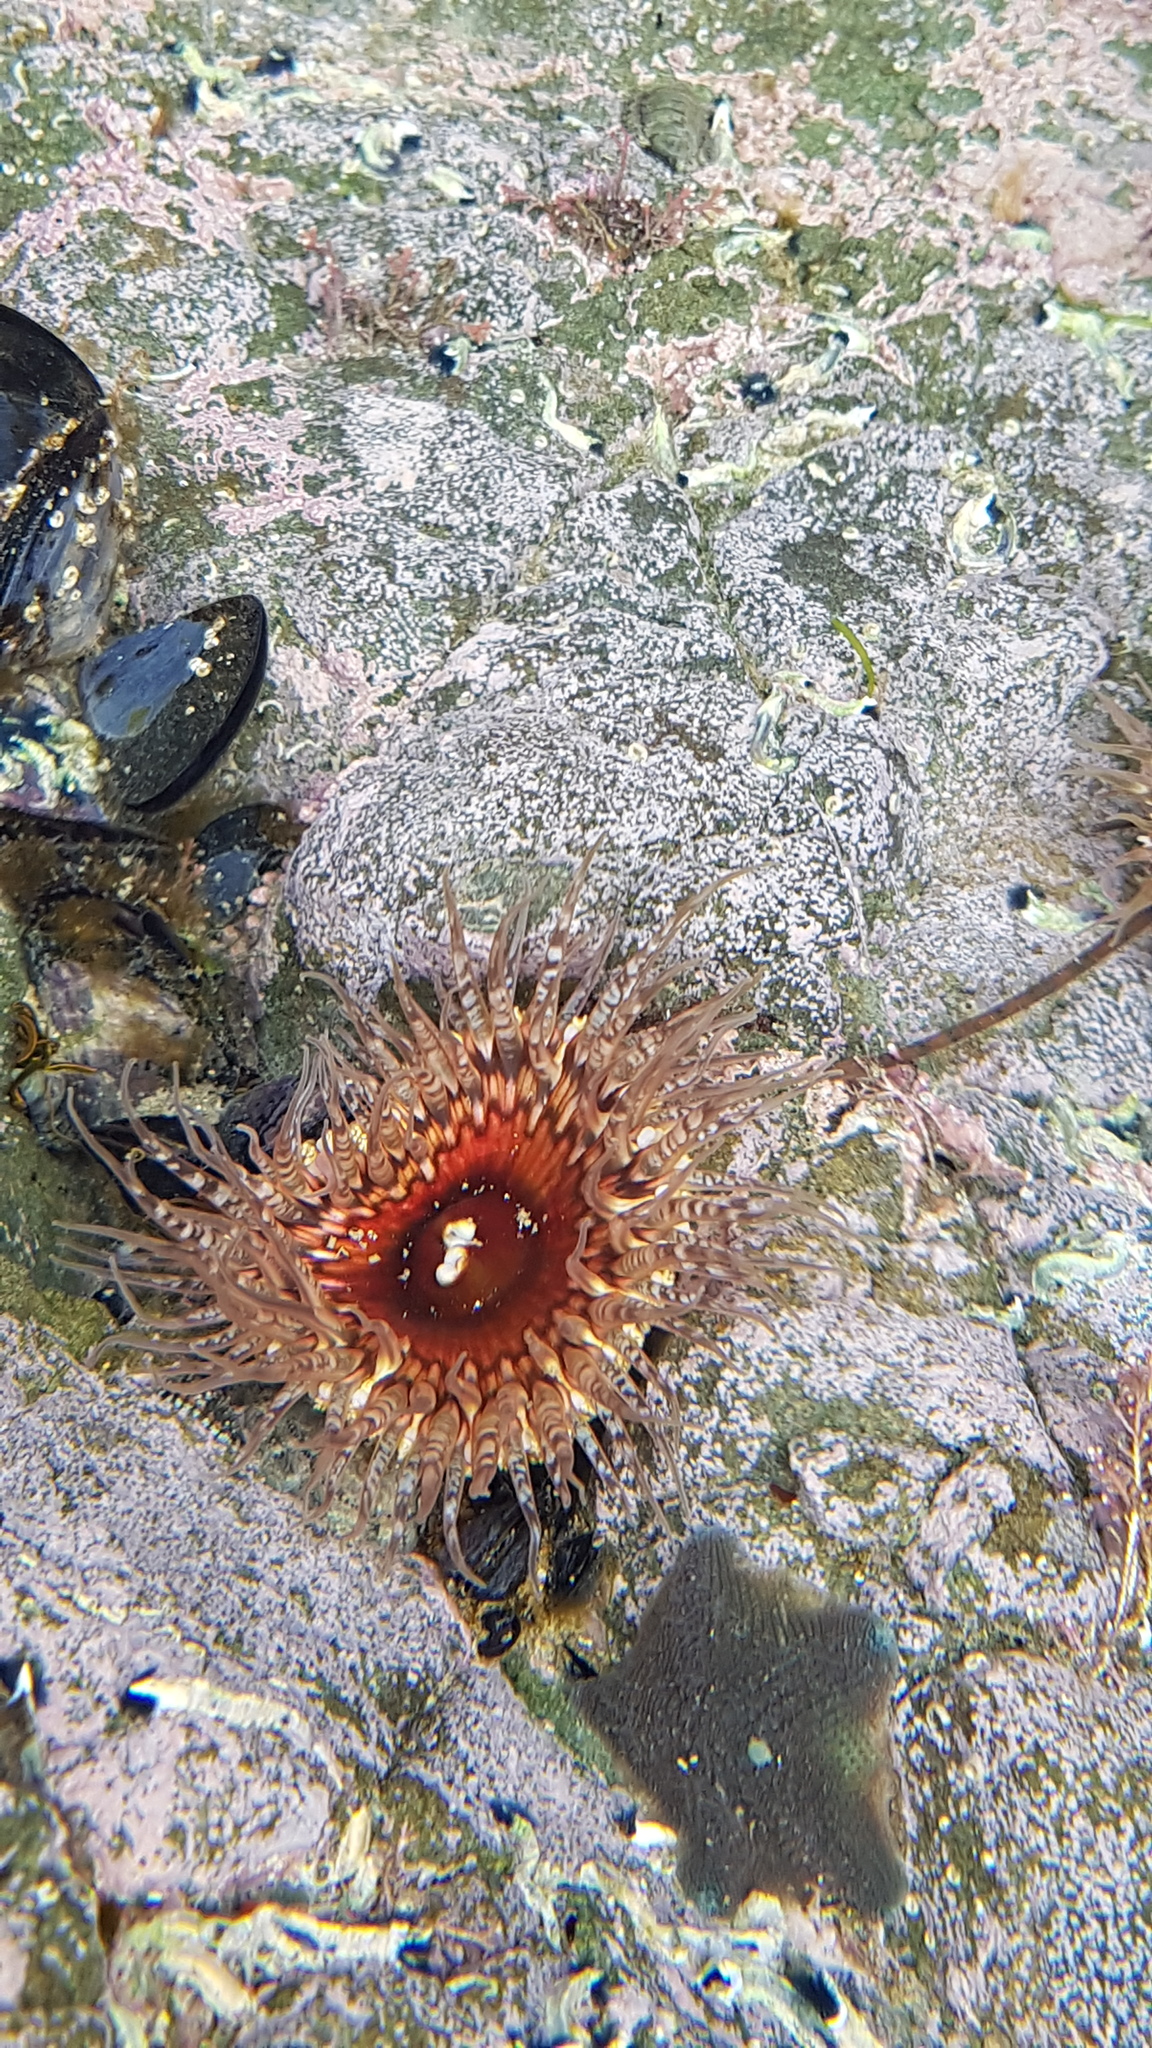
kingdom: Animalia
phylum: Cnidaria
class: Anthozoa
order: Actiniaria
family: Actiniidae
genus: Oulactis
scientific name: Oulactis muscosa
